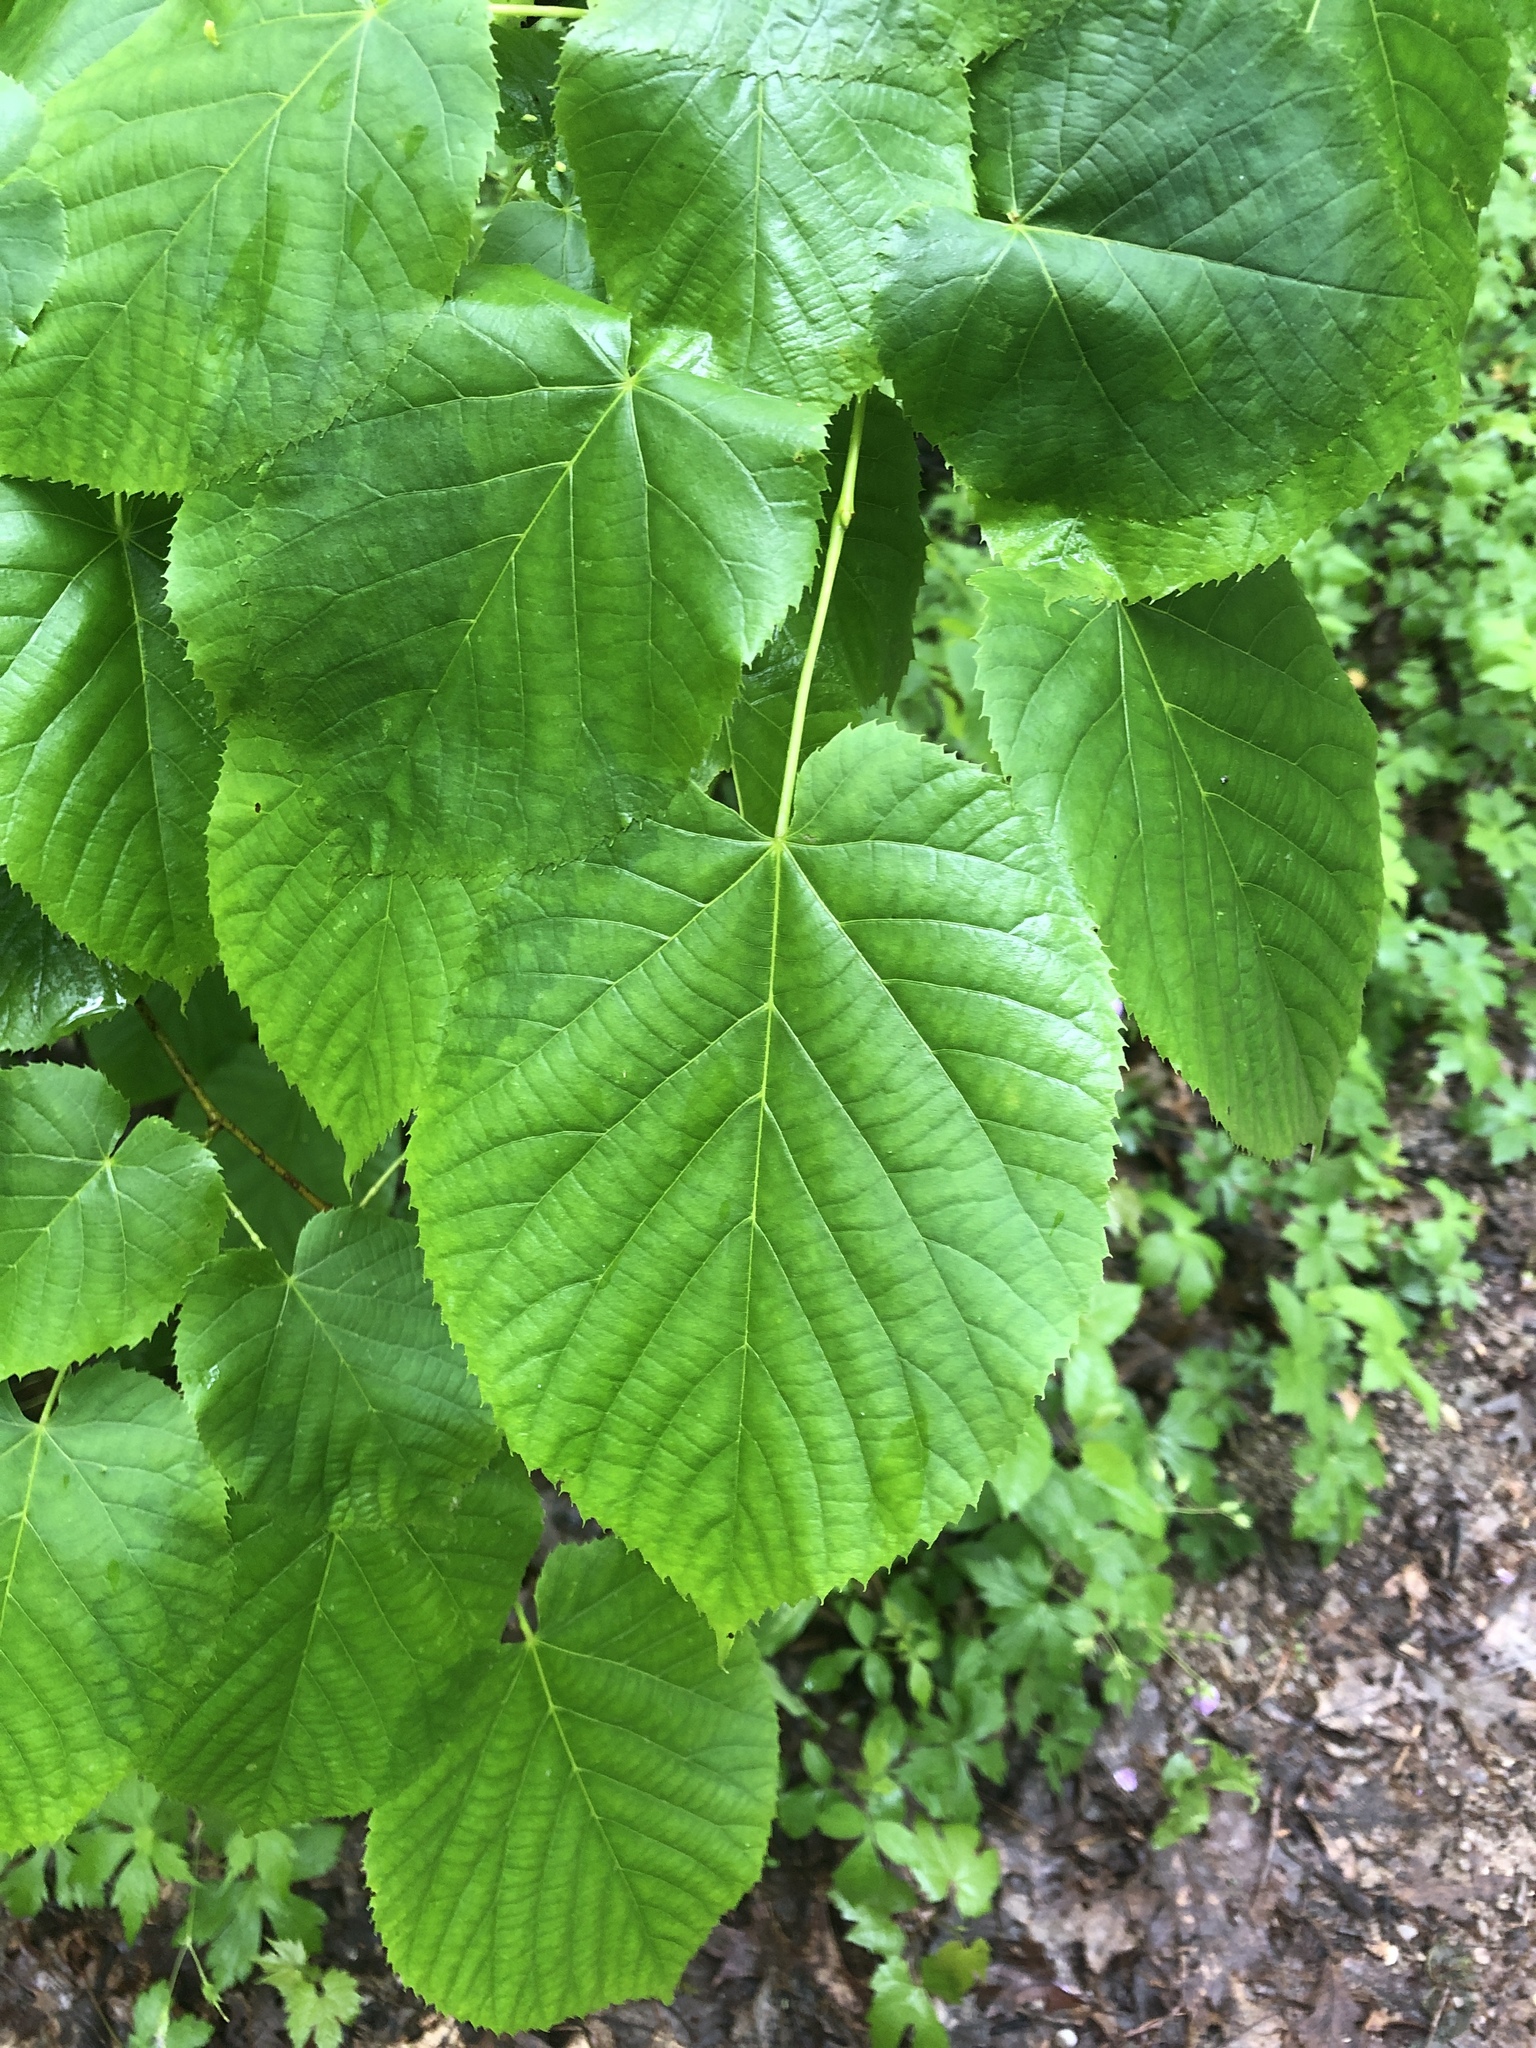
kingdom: Plantae
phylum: Tracheophyta
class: Magnoliopsida
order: Malvales
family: Malvaceae
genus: Tilia
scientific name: Tilia americana
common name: Basswood
